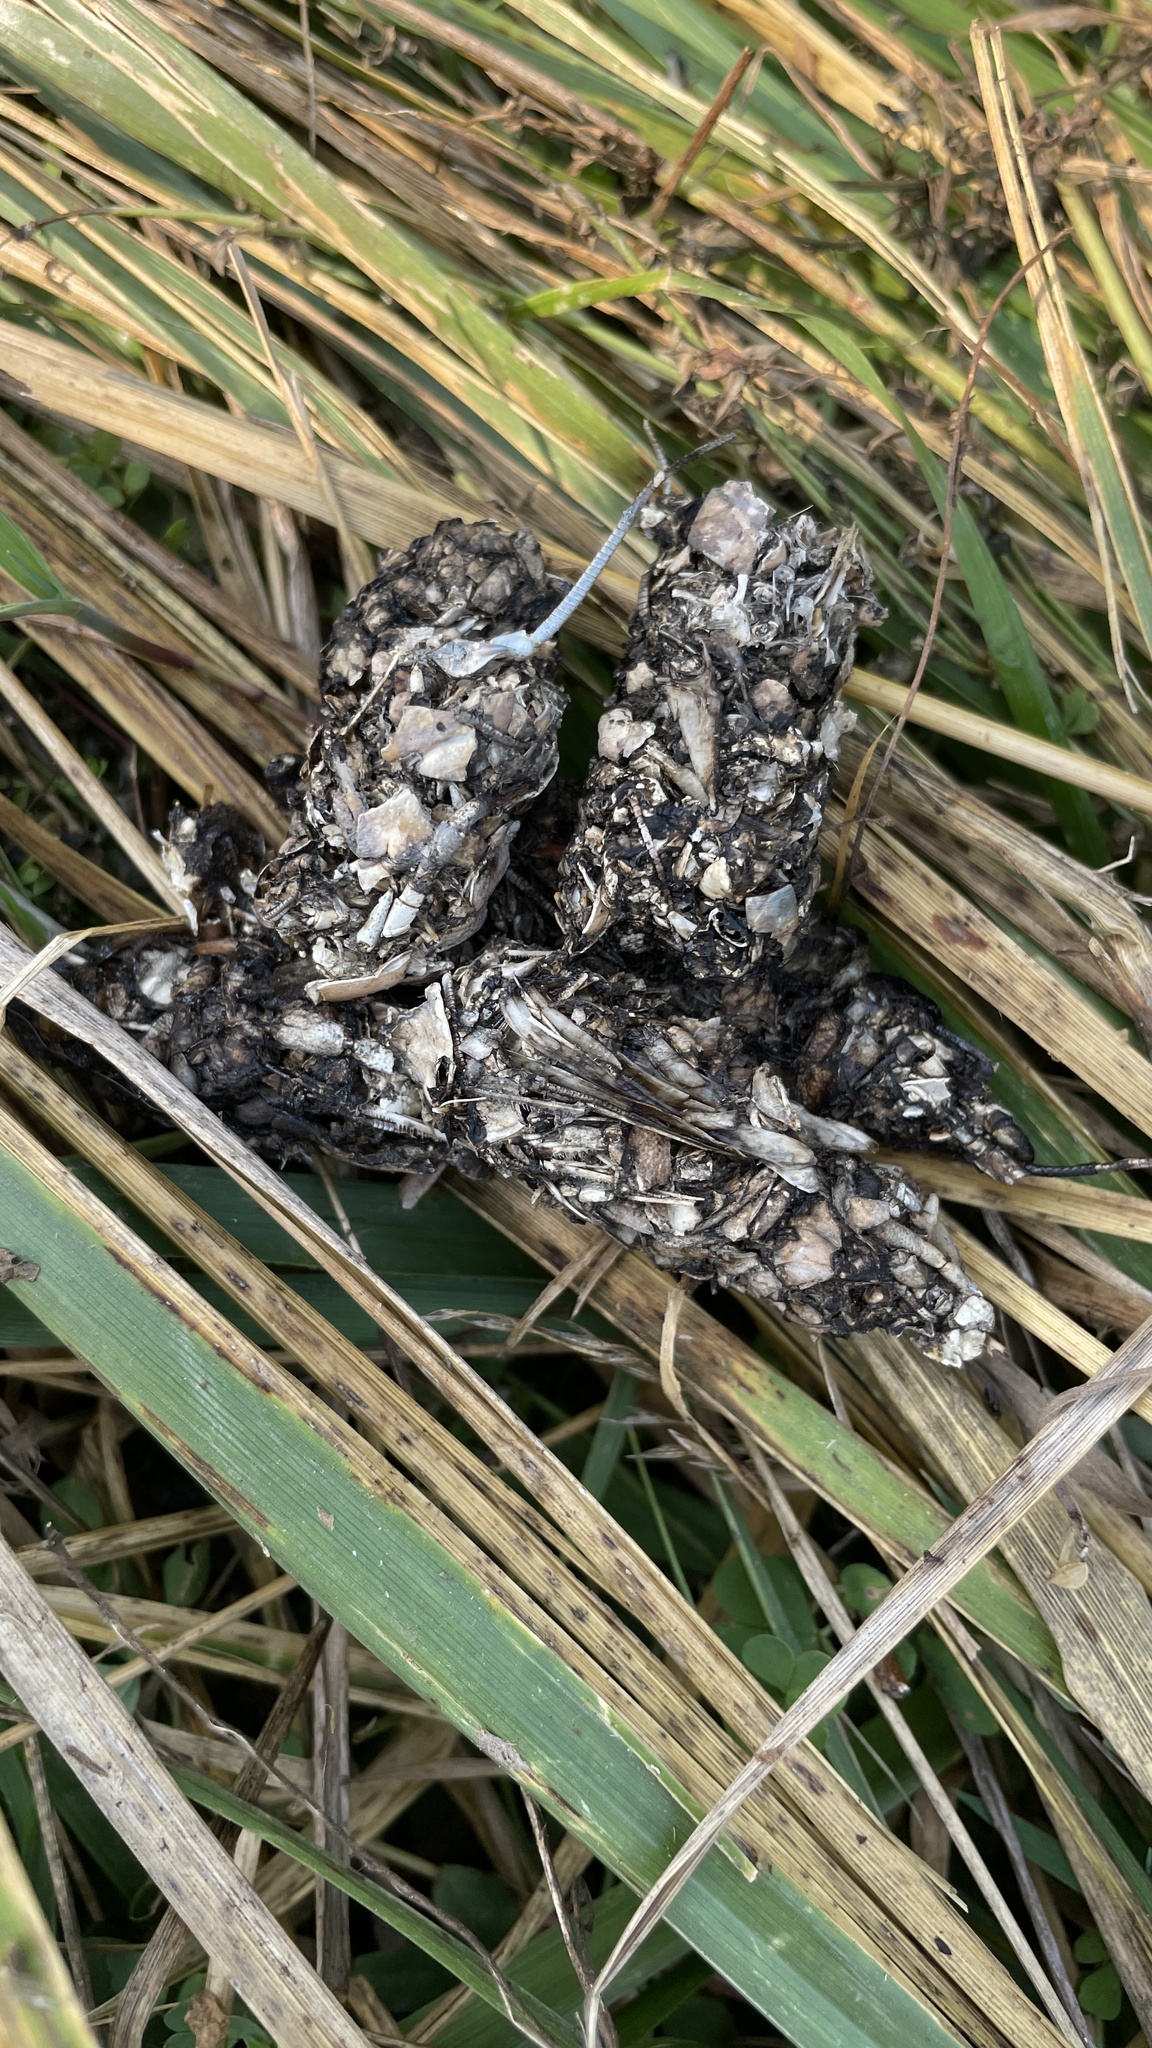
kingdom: Animalia
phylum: Chordata
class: Mammalia
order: Carnivora
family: Mustelidae
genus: Lontra
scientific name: Lontra canadensis
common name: North american river otter
